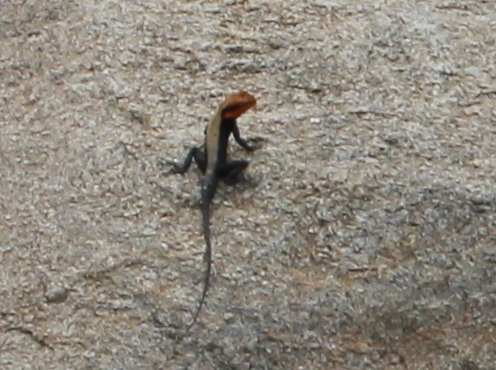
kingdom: Animalia
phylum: Chordata
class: Squamata
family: Agamidae
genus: Psammophilus
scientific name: Psammophilus dorsalis
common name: South indian rock agama
